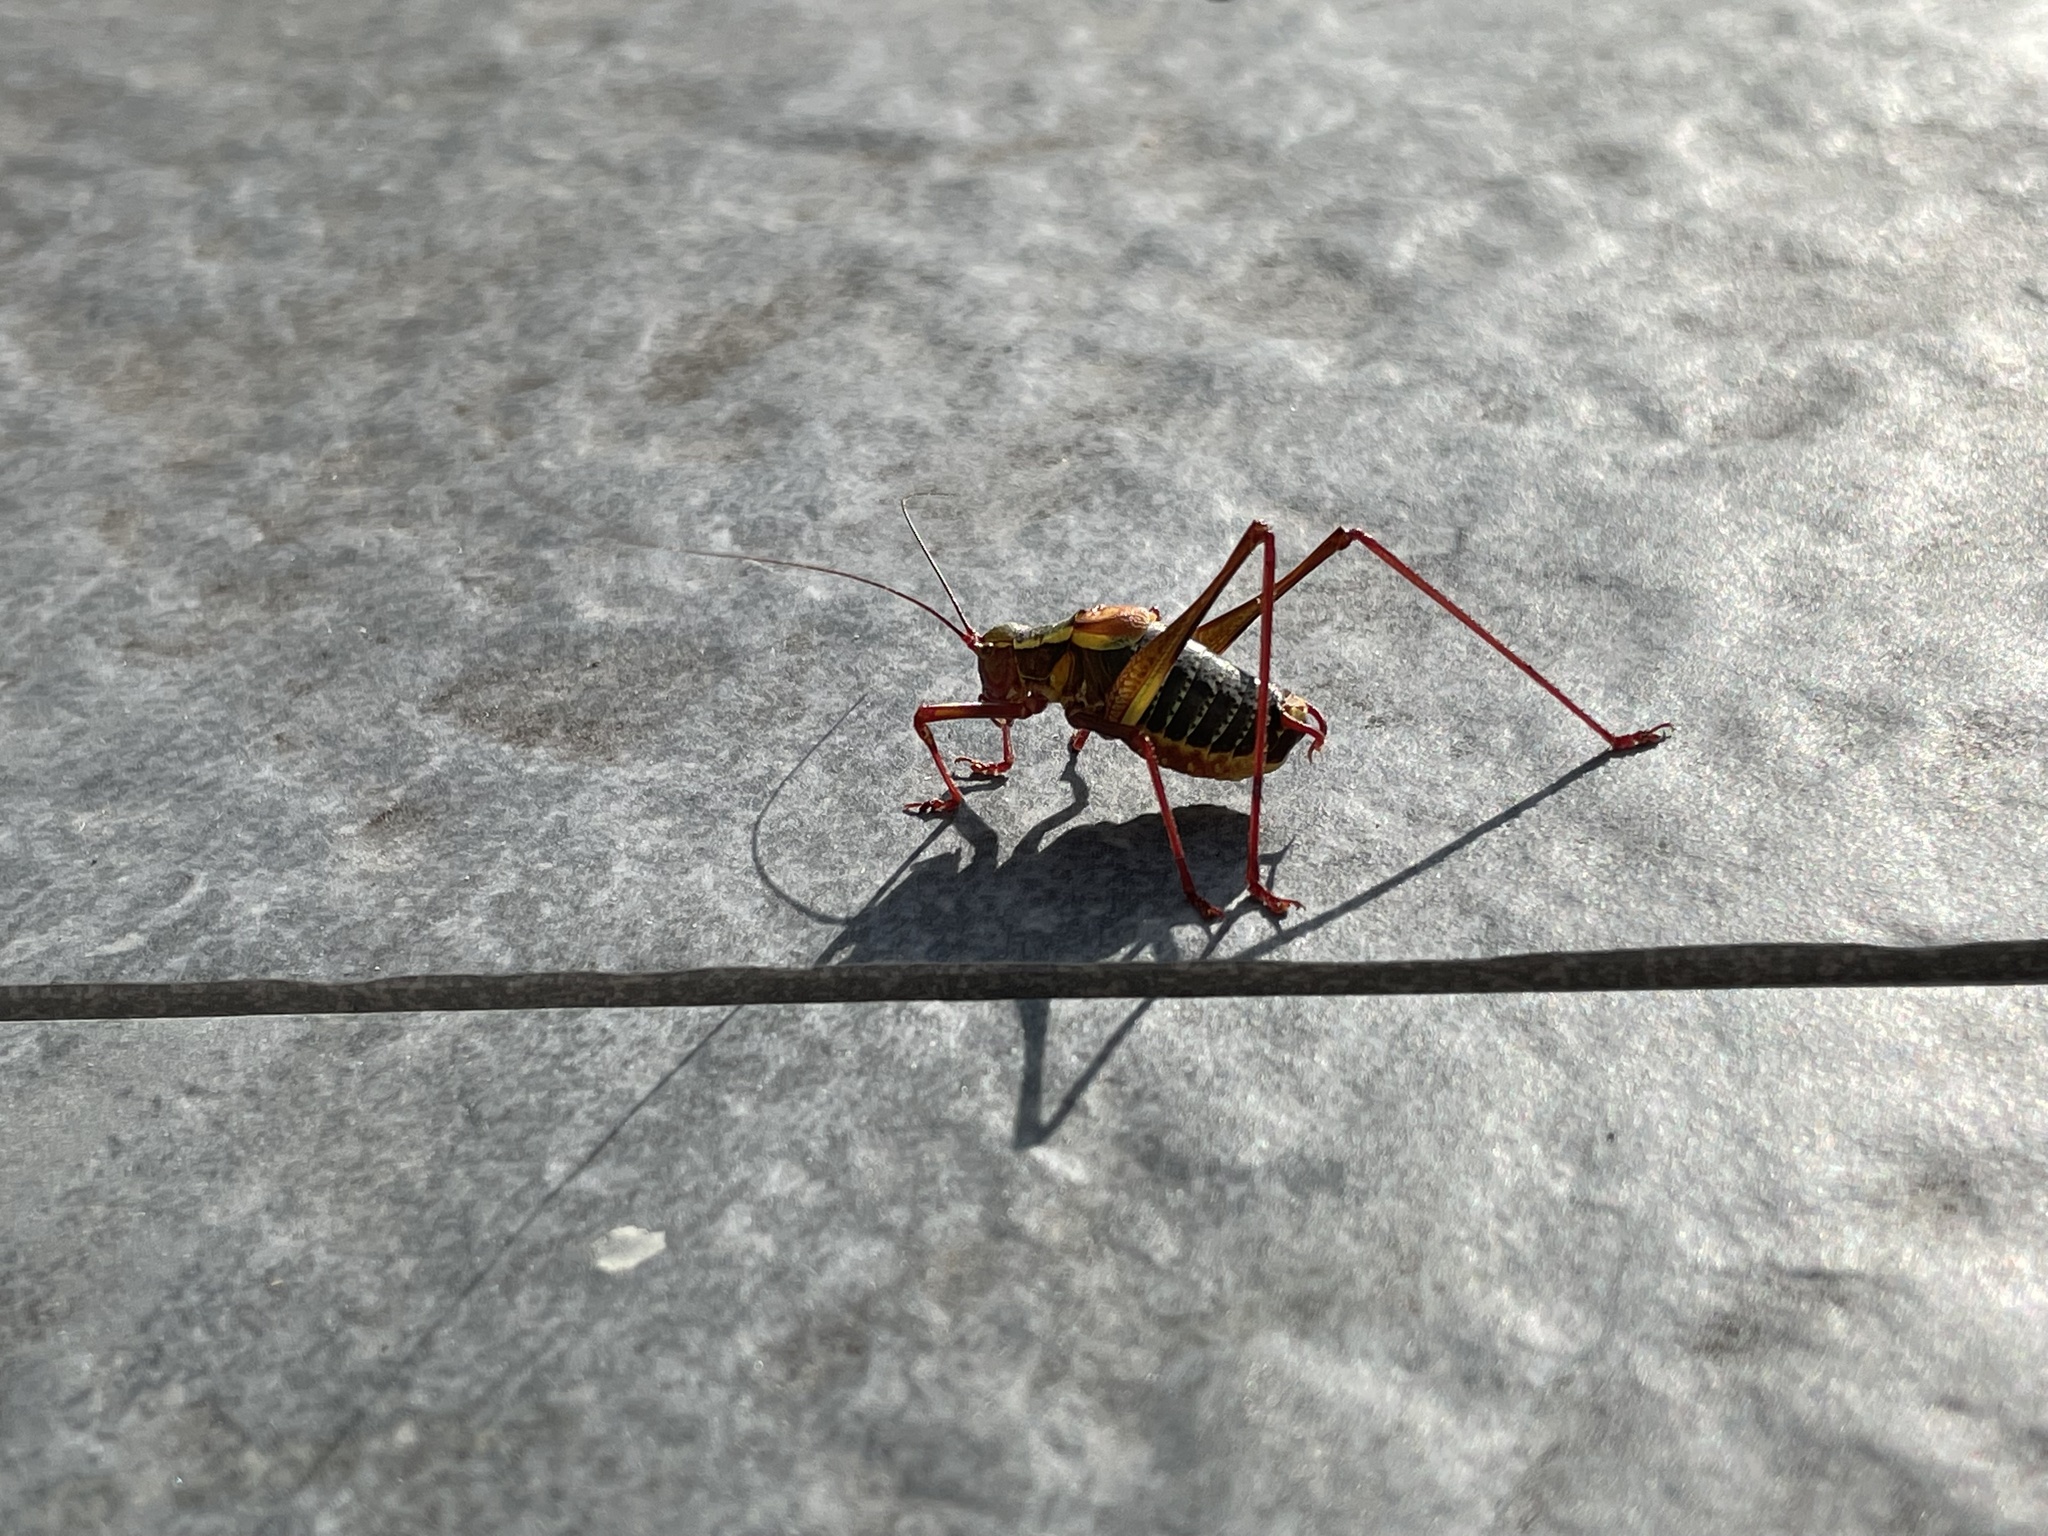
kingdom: Animalia
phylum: Arthropoda
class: Insecta
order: Orthoptera
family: Tettigoniidae
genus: Barbitistes
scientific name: Barbitistes serricauda
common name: Saw-tailed bush-cricket
